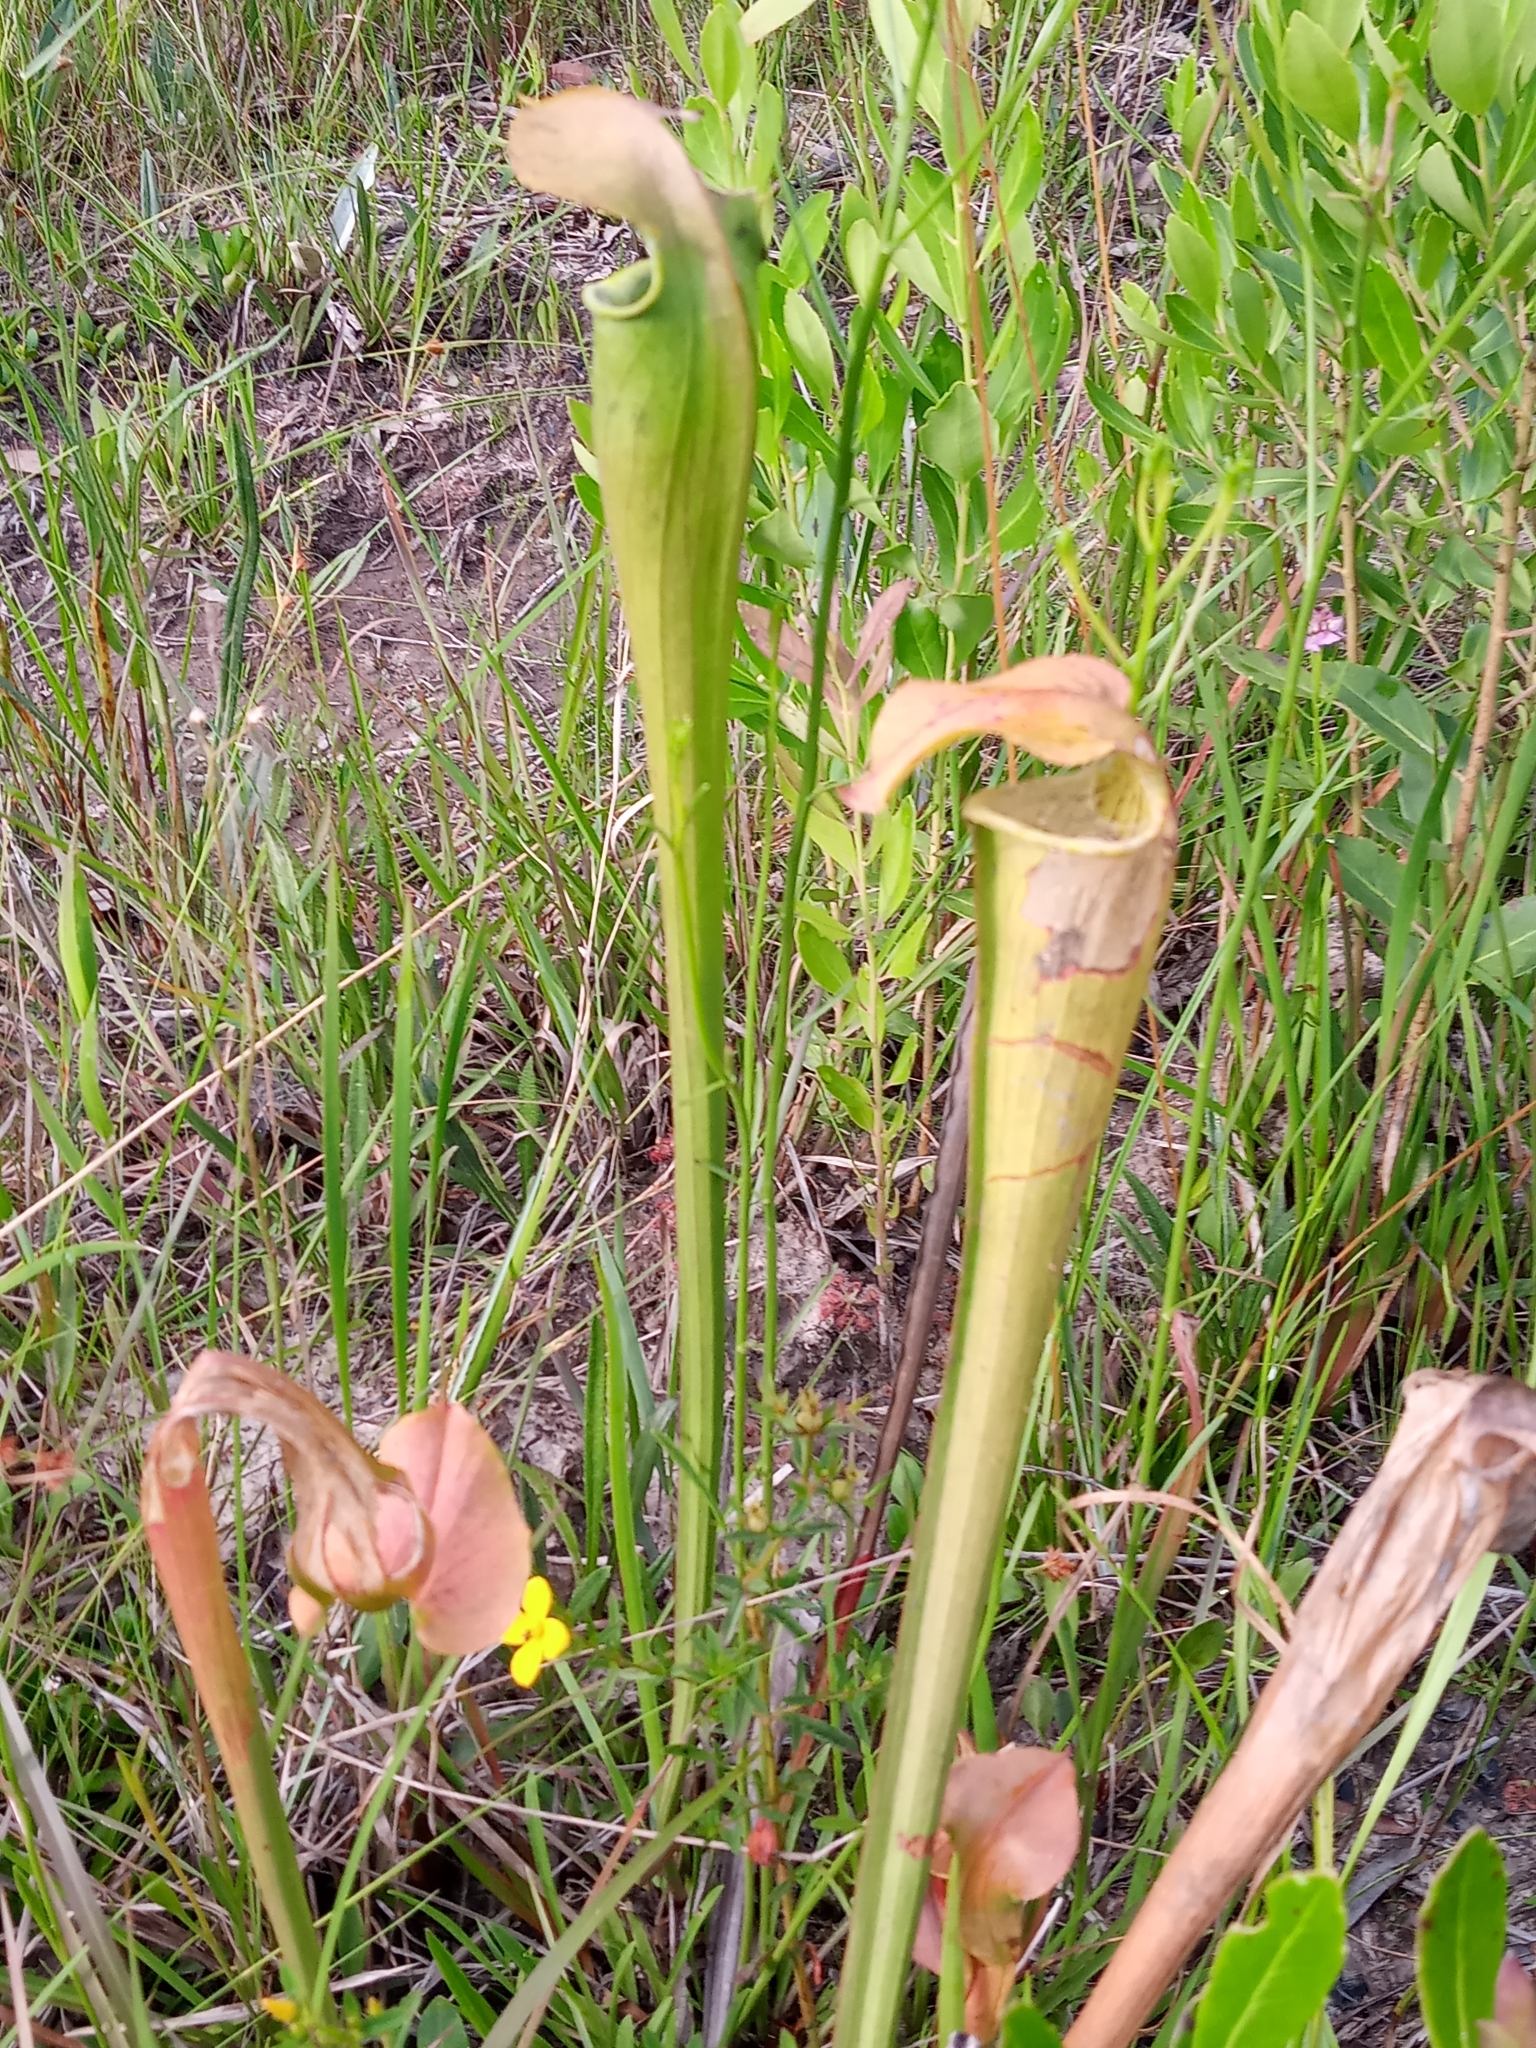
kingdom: Plantae
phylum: Tracheophyta
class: Magnoliopsida
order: Ericales
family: Sarraceniaceae
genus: Sarracenia
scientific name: Sarracenia alata
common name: Yellow trumpets
